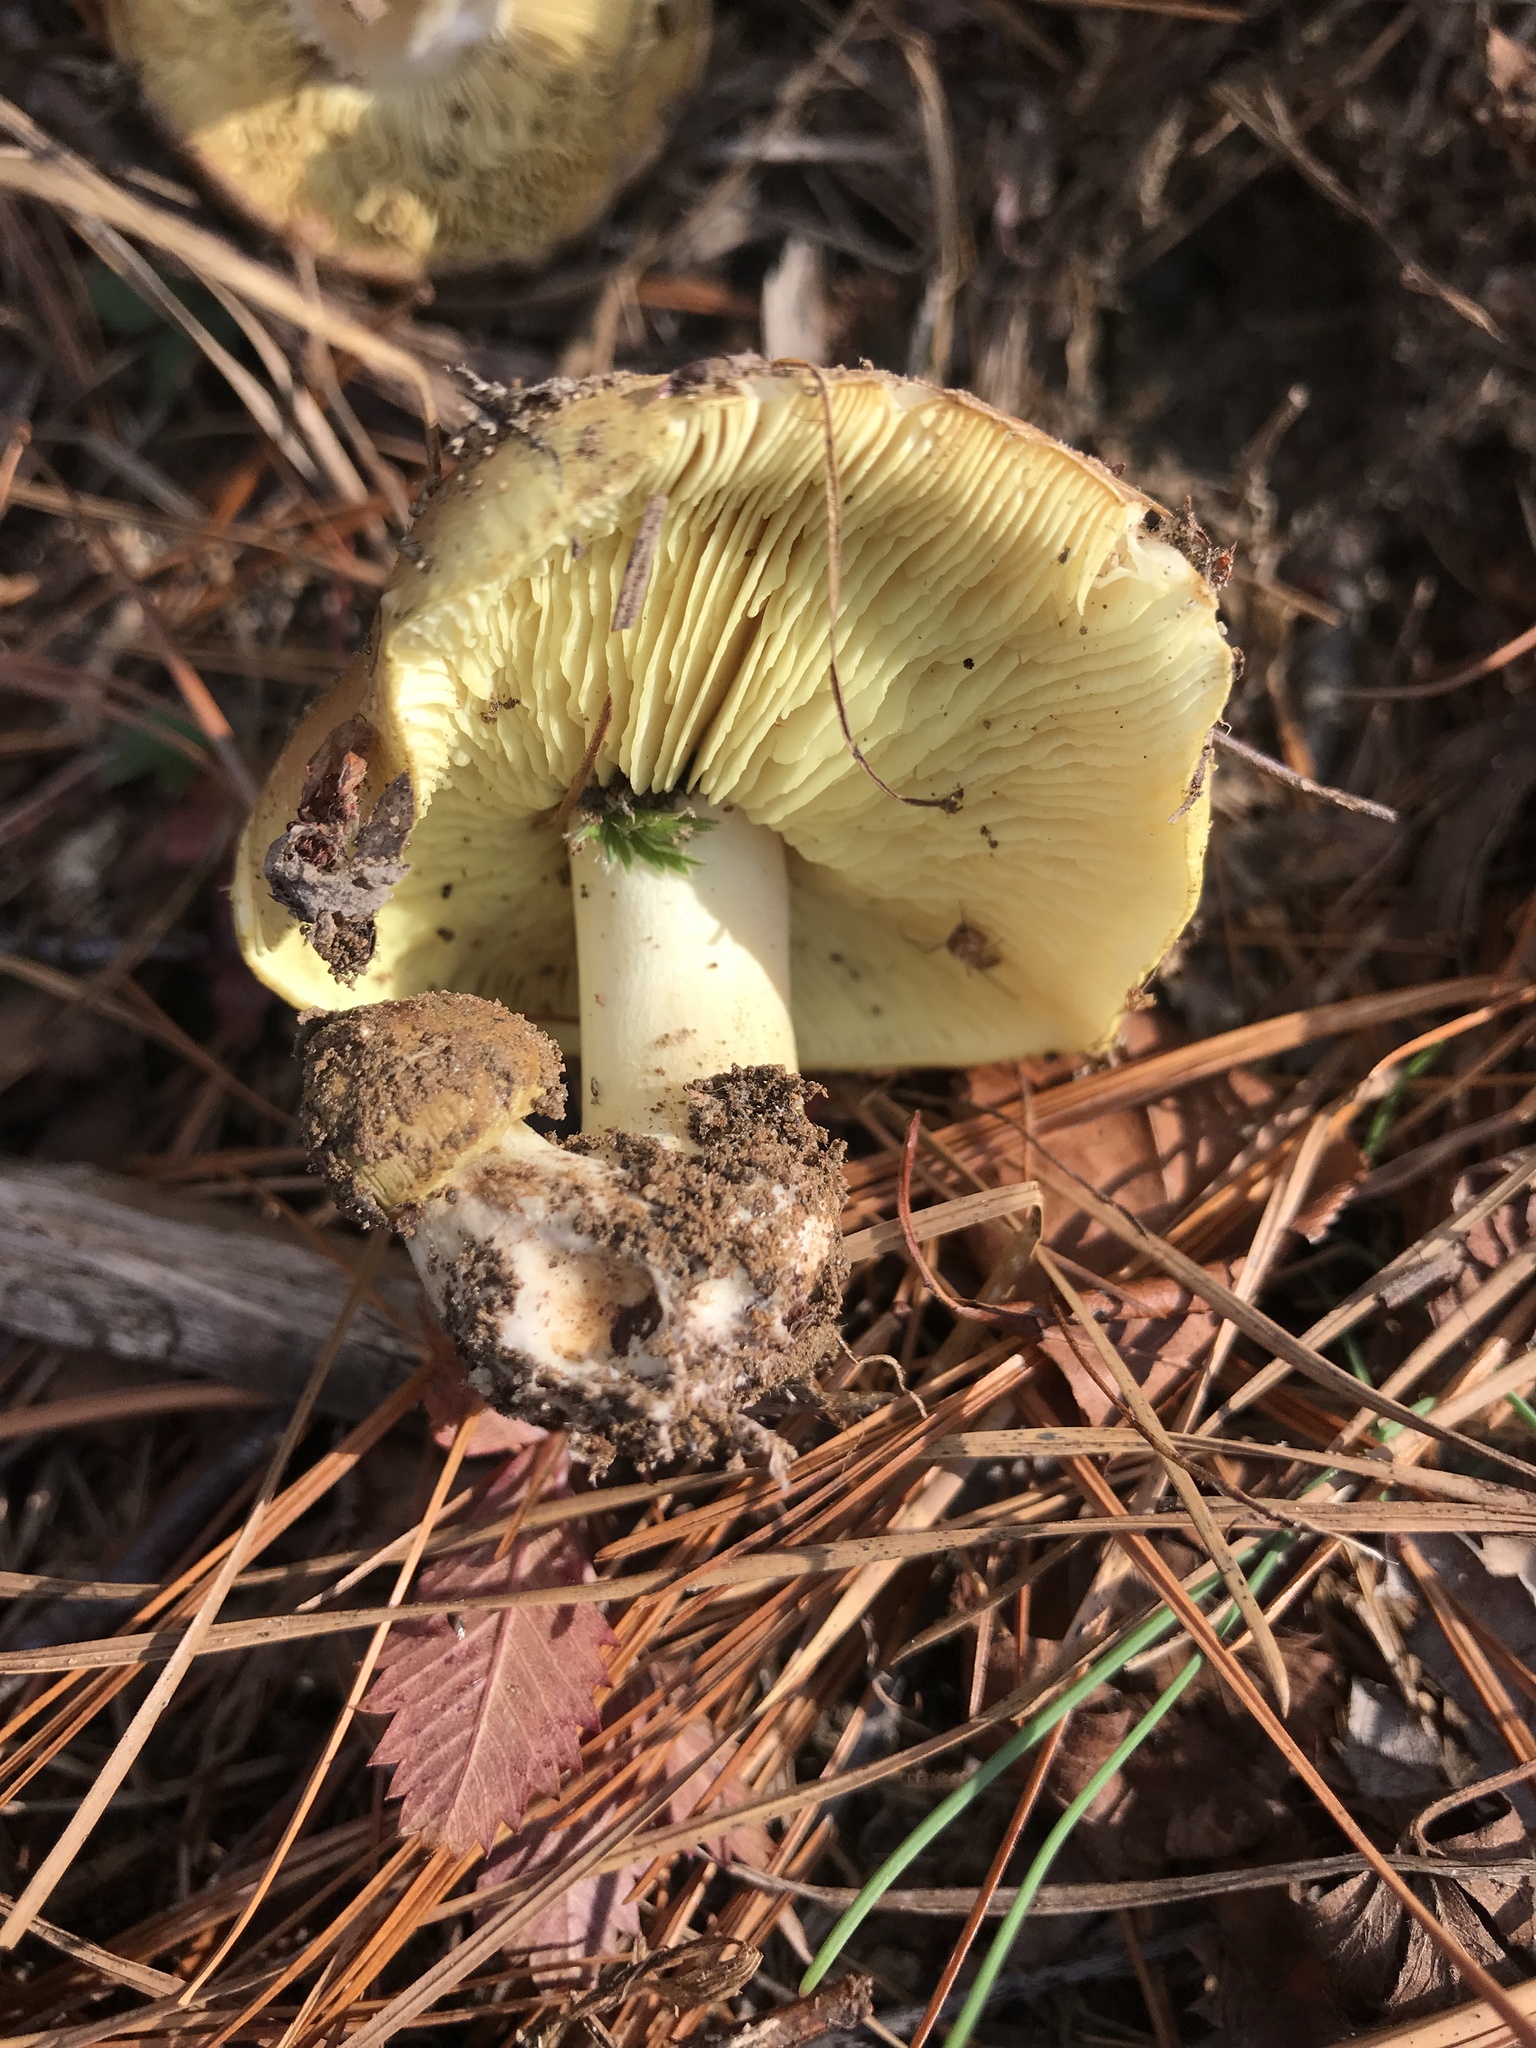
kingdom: Fungi
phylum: Basidiomycota
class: Agaricomycetes
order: Agaricales
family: Tricholomataceae
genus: Tricholoma
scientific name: Tricholoma equestre
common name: Yellow knight
